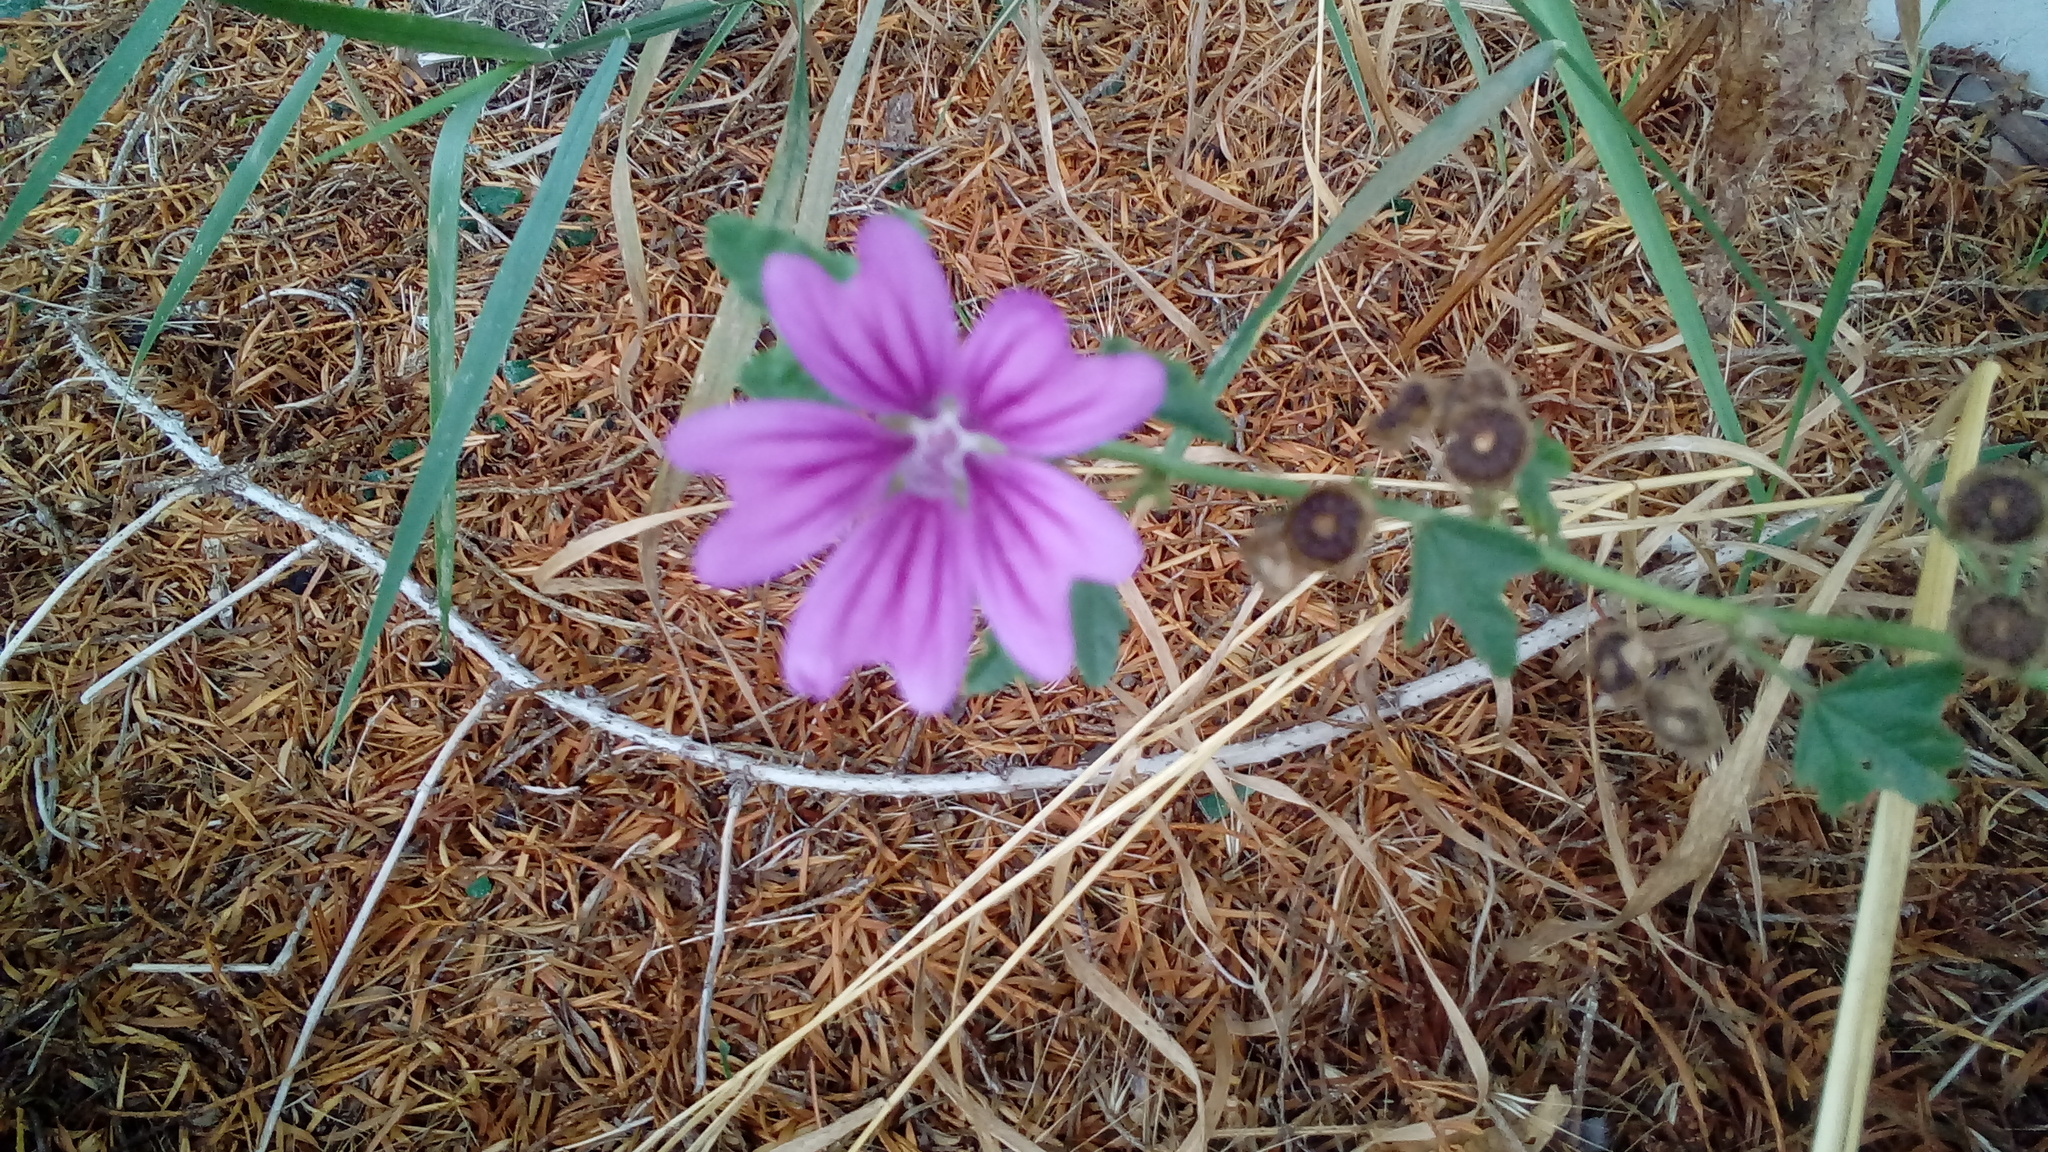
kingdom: Plantae
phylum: Tracheophyta
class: Magnoliopsida
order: Malvales
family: Malvaceae
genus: Malva
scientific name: Malva sylvestris
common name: Common mallow
